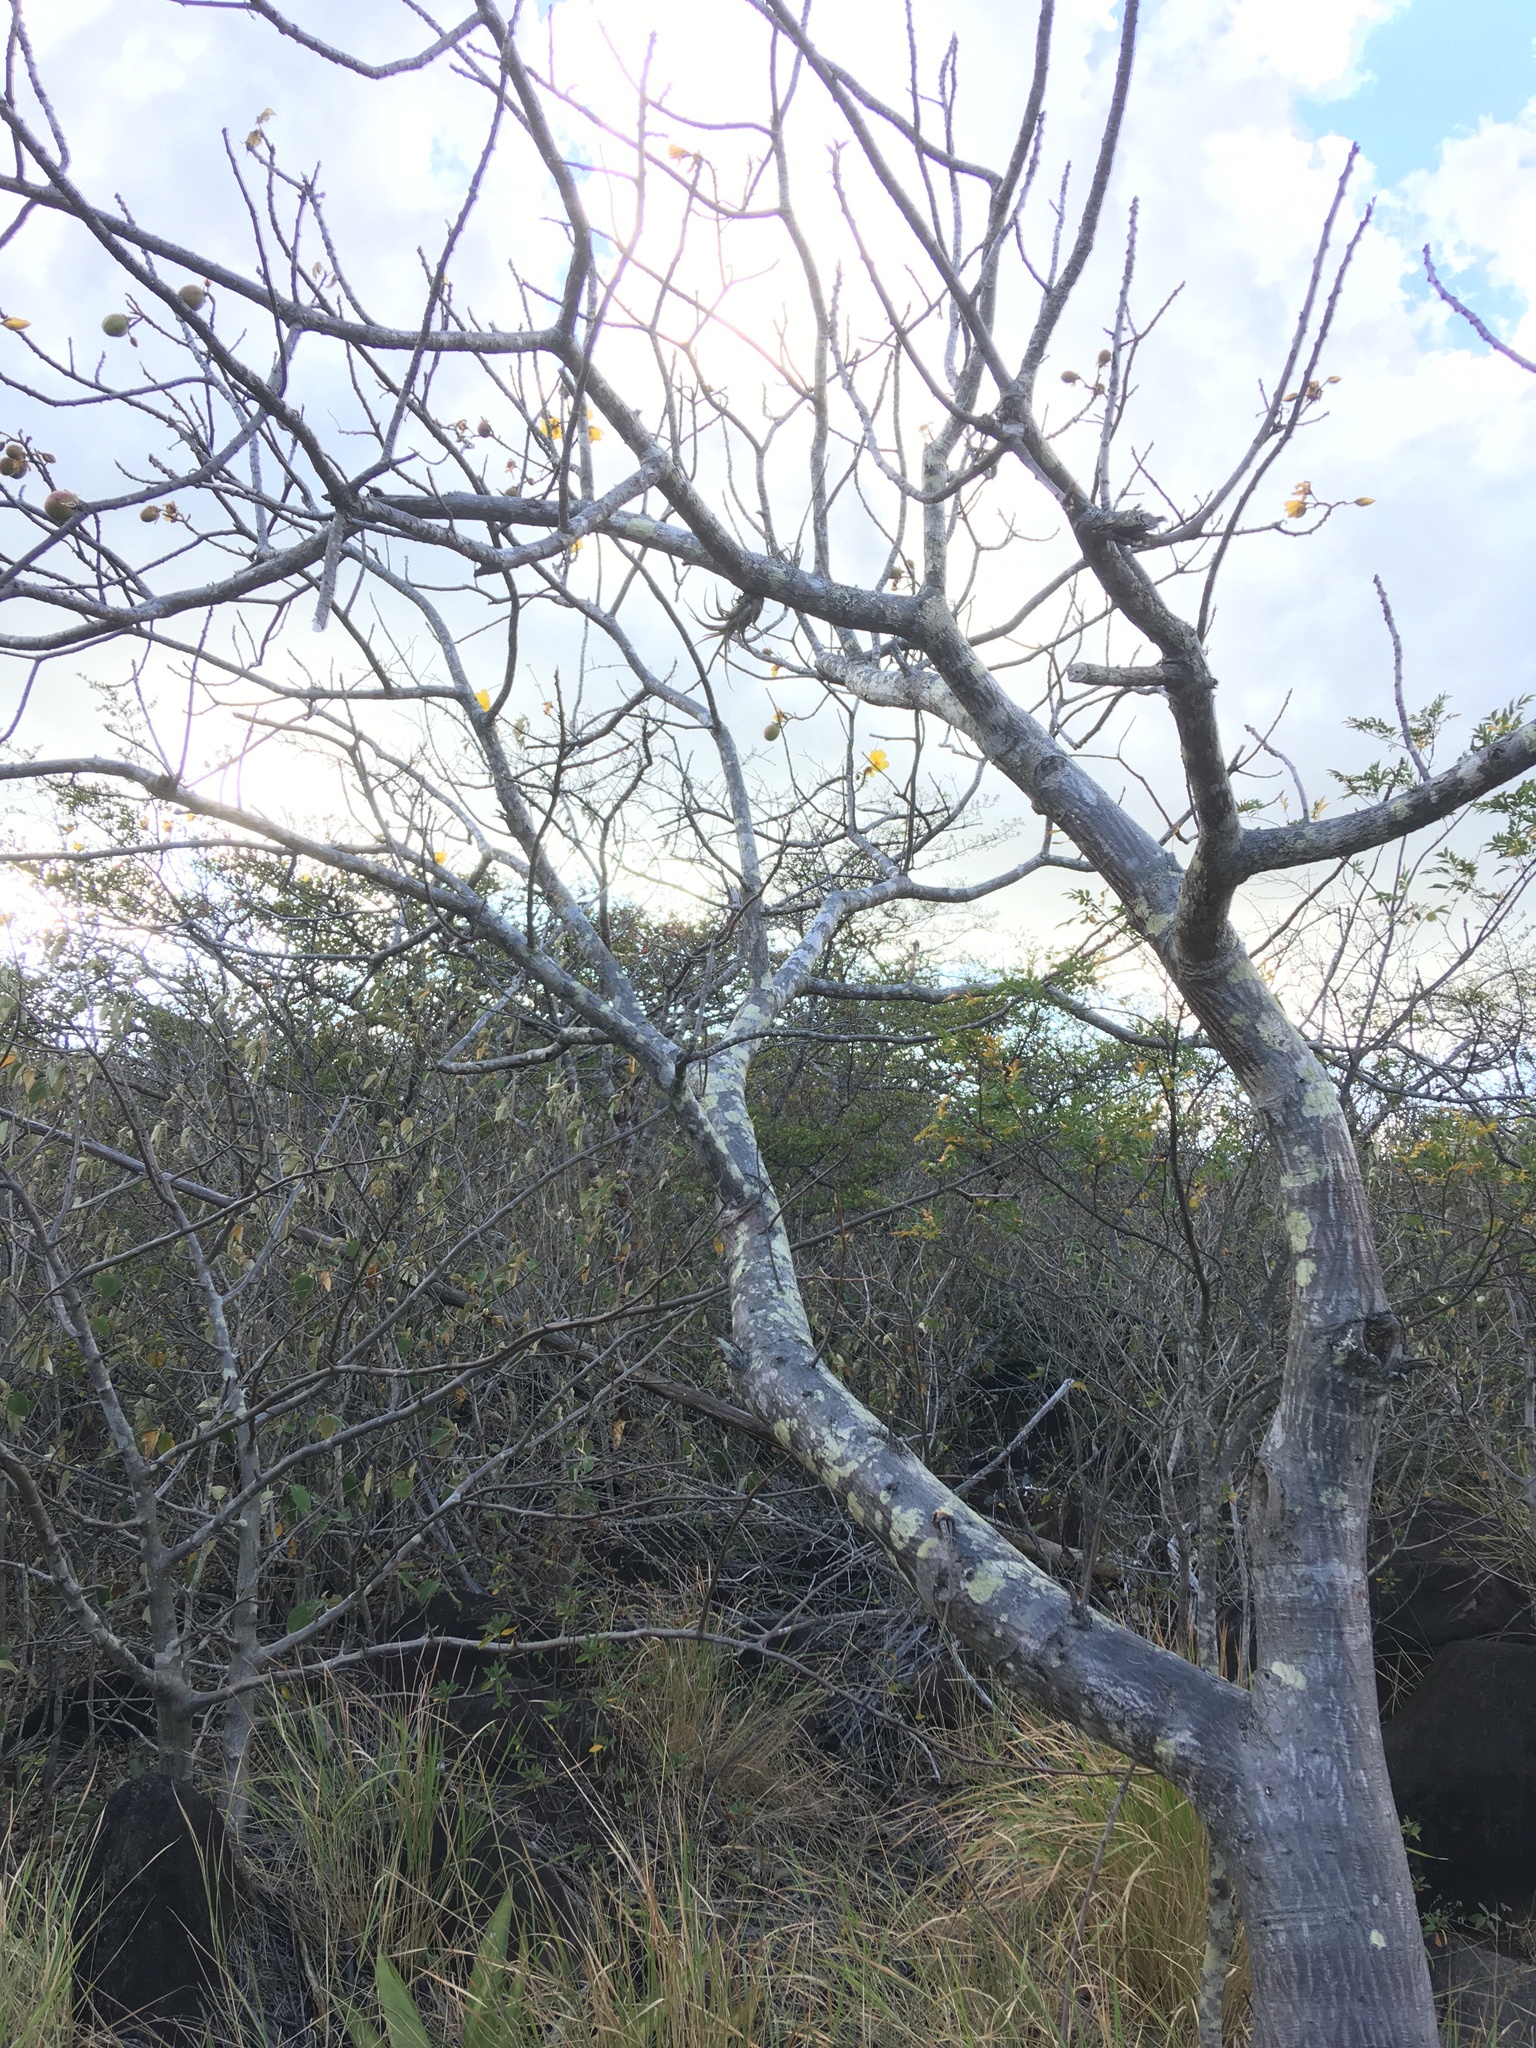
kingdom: Plantae
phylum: Tracheophyta
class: Magnoliopsida
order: Malvales
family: Cochlospermaceae
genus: Cochlospermum
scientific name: Cochlospermum vitifolium
